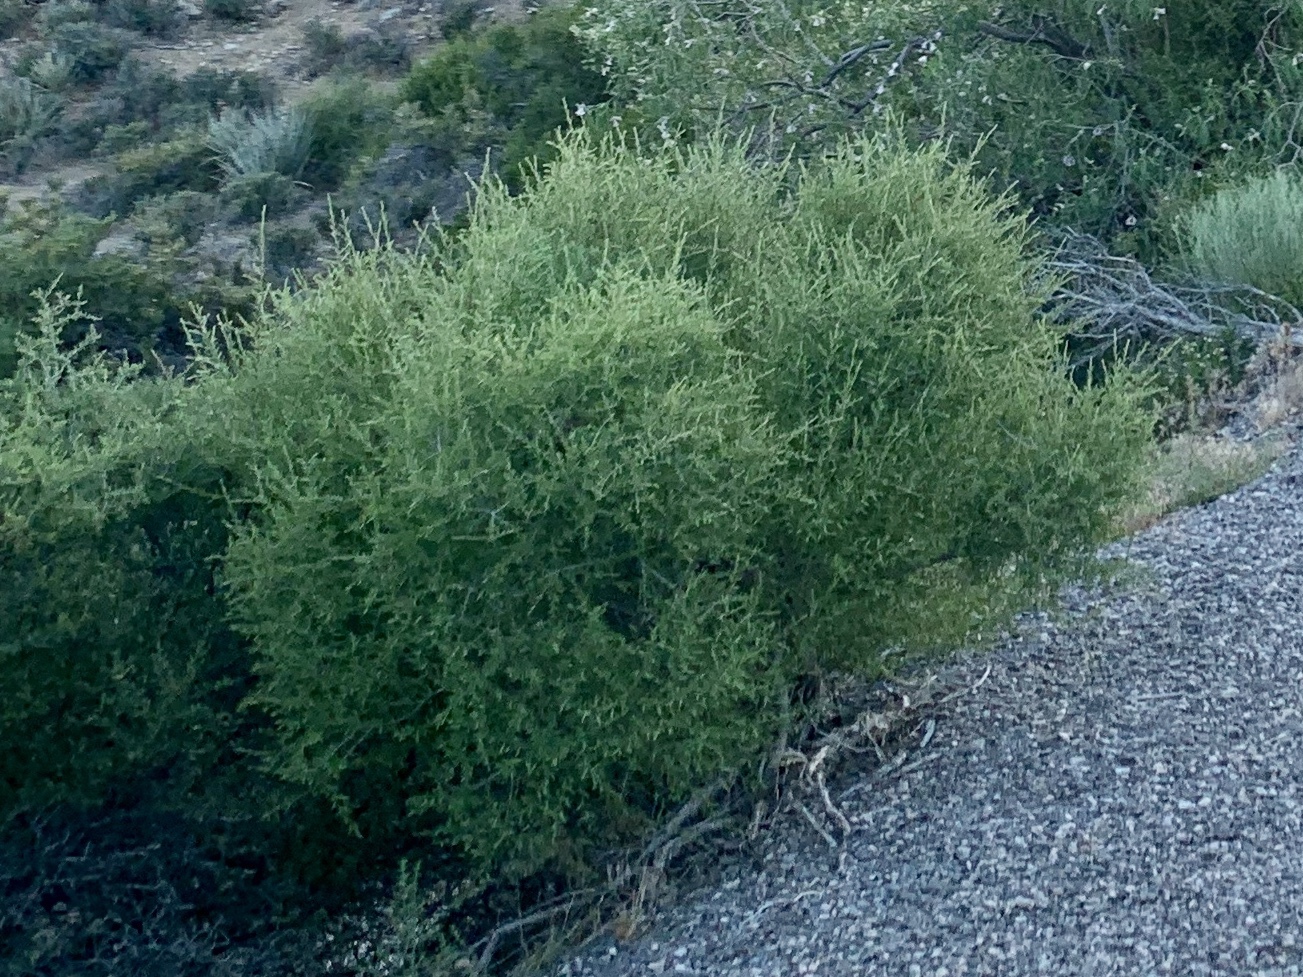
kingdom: Plantae
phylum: Tracheophyta
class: Magnoliopsida
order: Caryophyllales
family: Amaranthaceae
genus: Atriplex
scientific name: Atriplex canescens
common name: Four-wing saltbush
